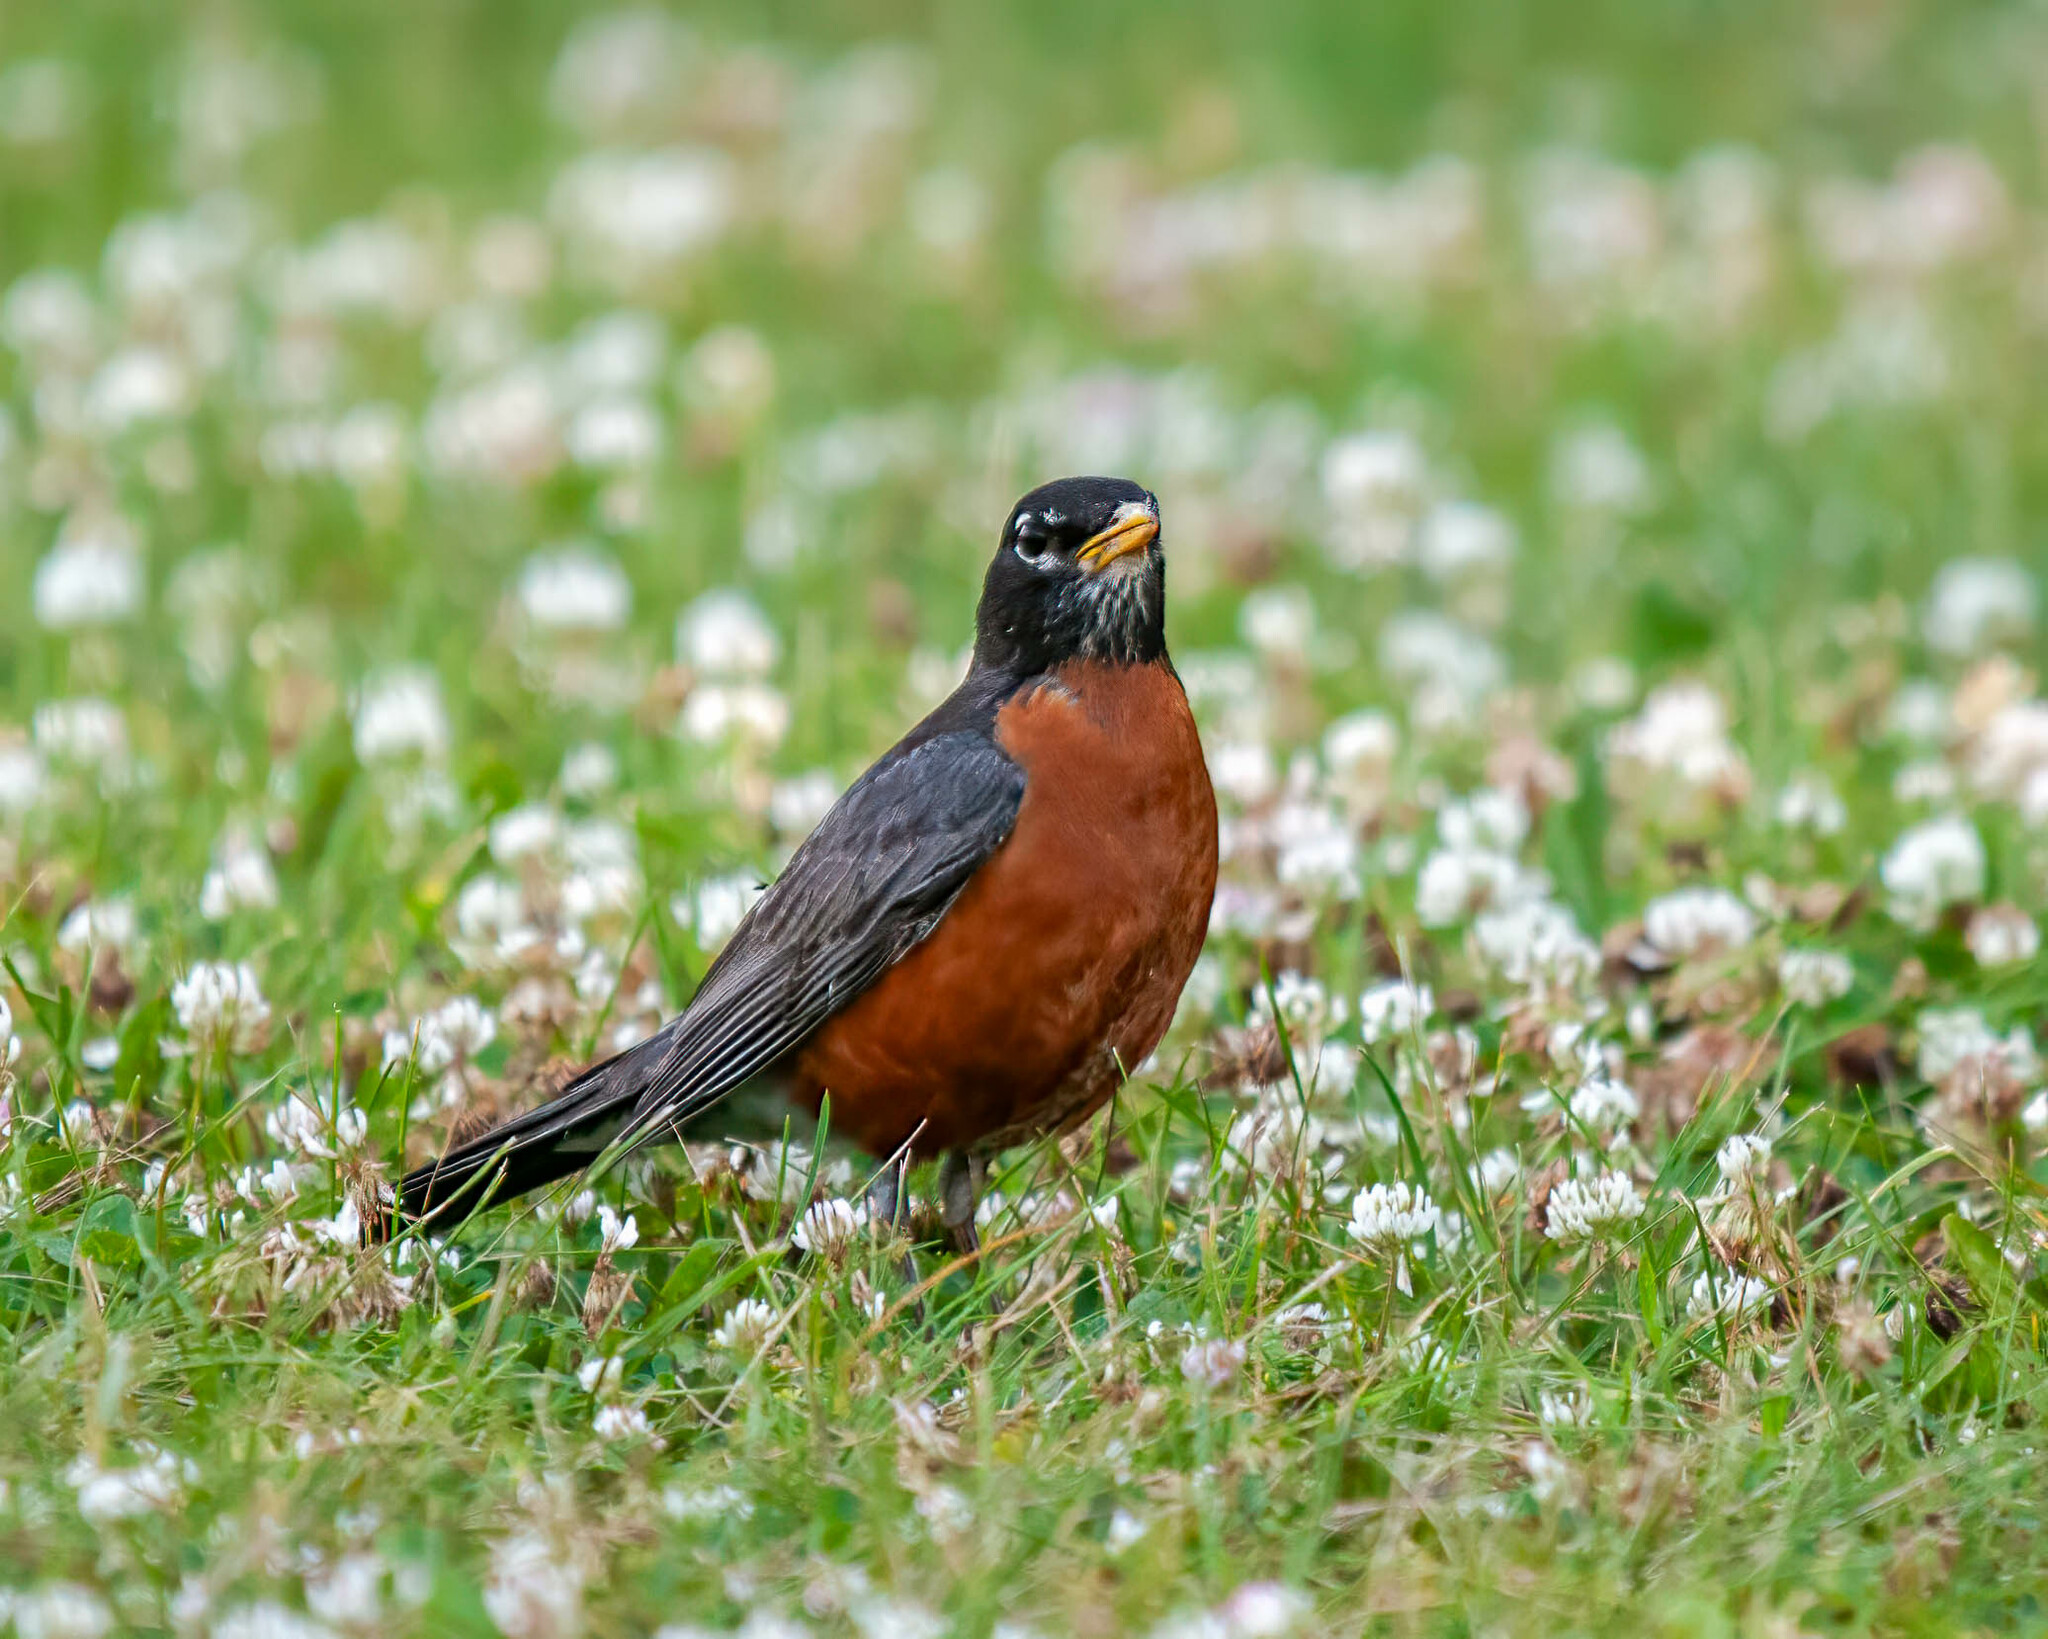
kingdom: Animalia
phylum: Chordata
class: Aves
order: Passeriformes
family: Turdidae
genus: Turdus
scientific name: Turdus migratorius
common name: American robin
